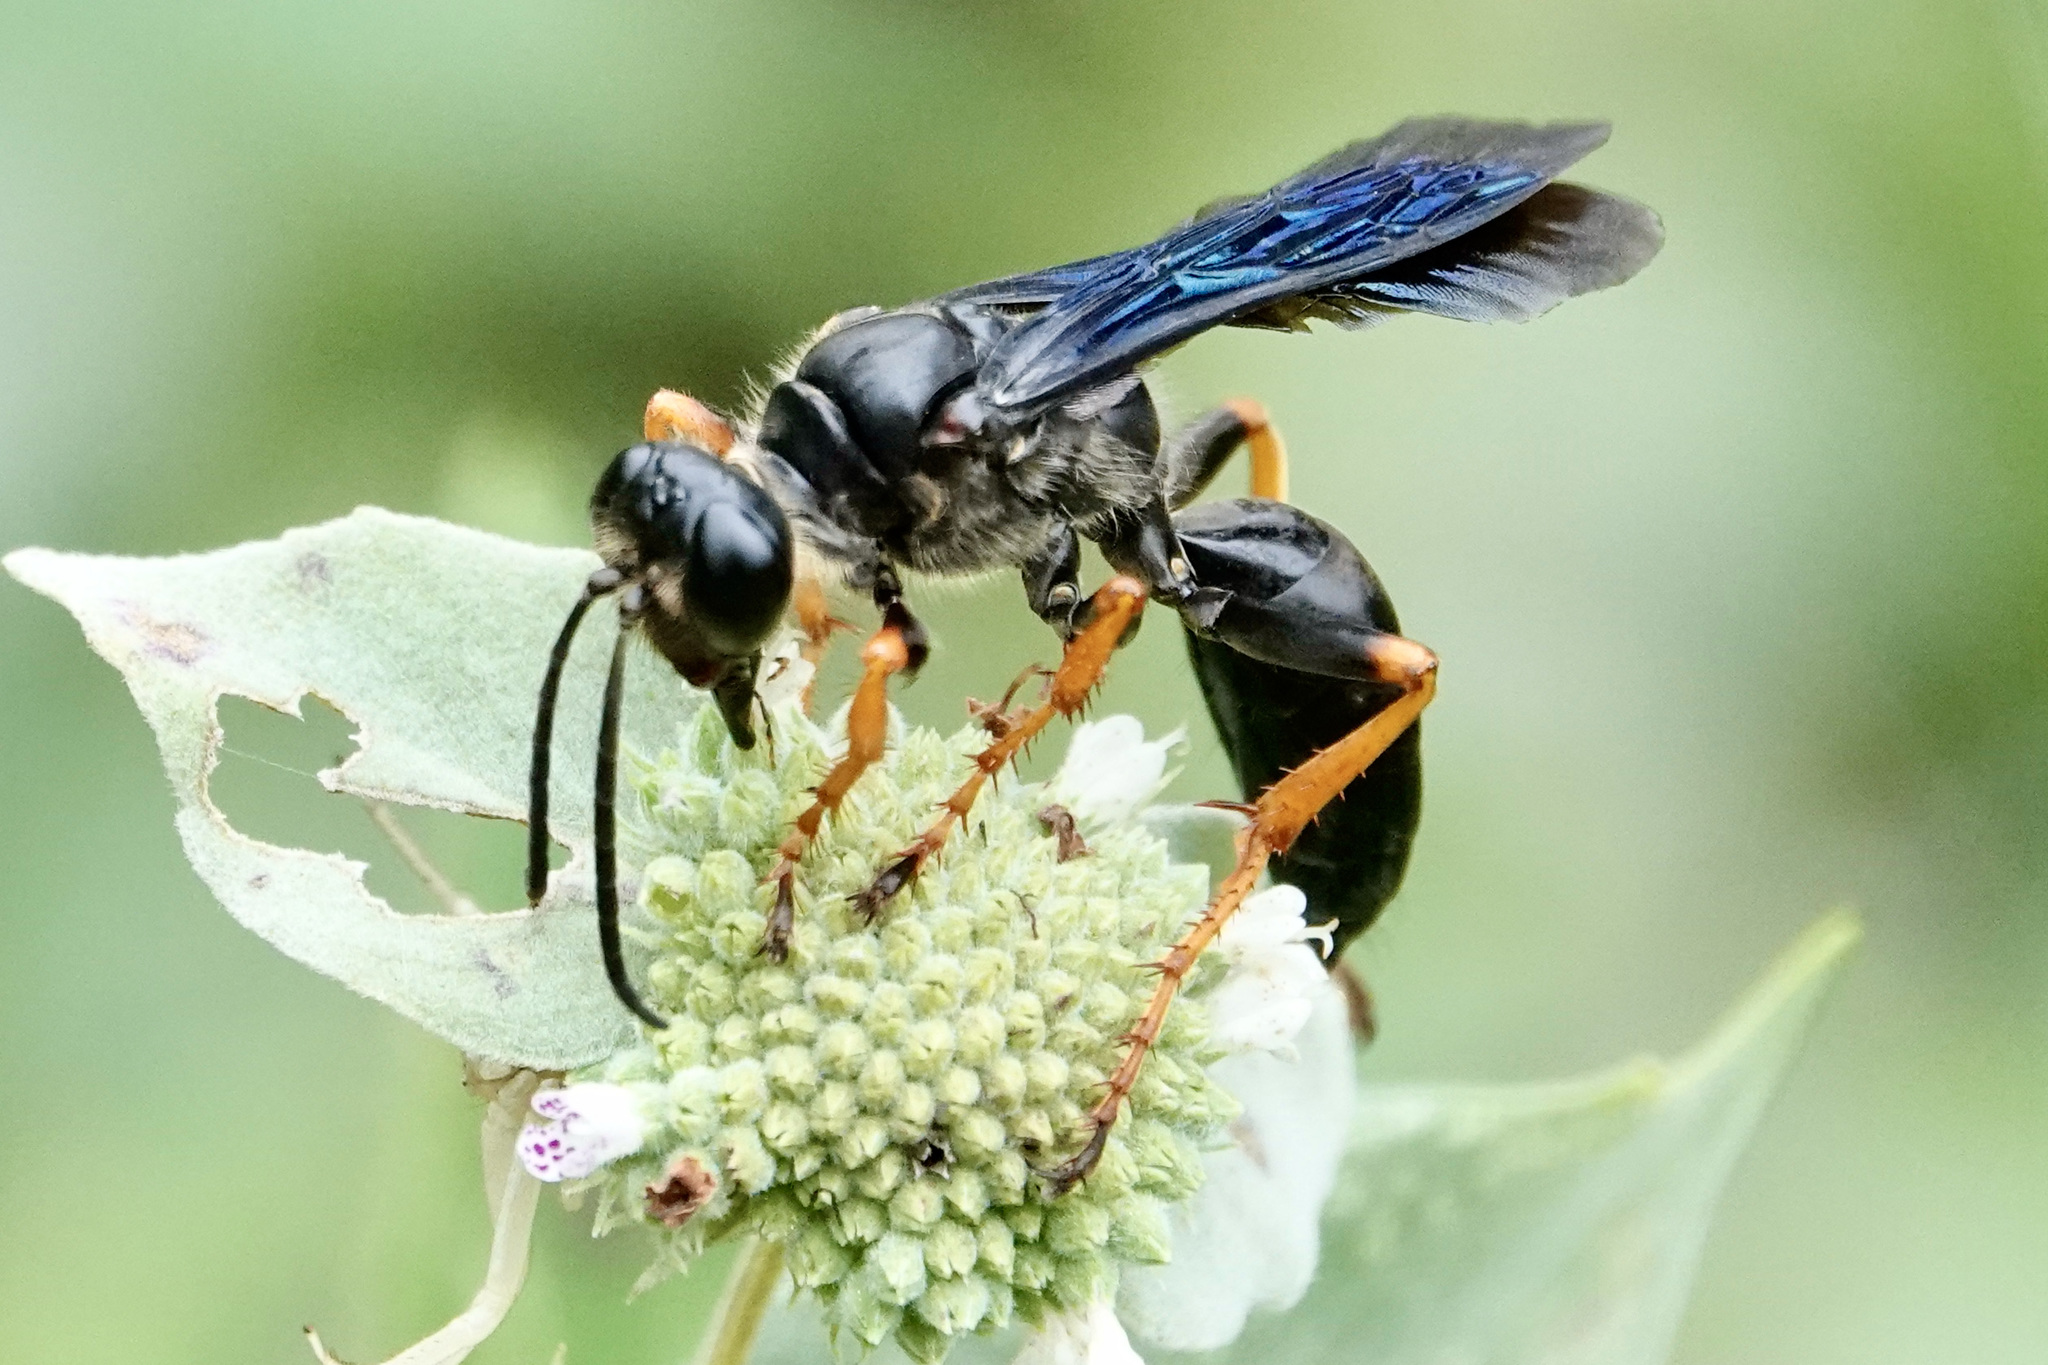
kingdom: Animalia
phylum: Arthropoda
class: Insecta
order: Hymenoptera
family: Sphecidae
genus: Sphex
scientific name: Sphex nudus
